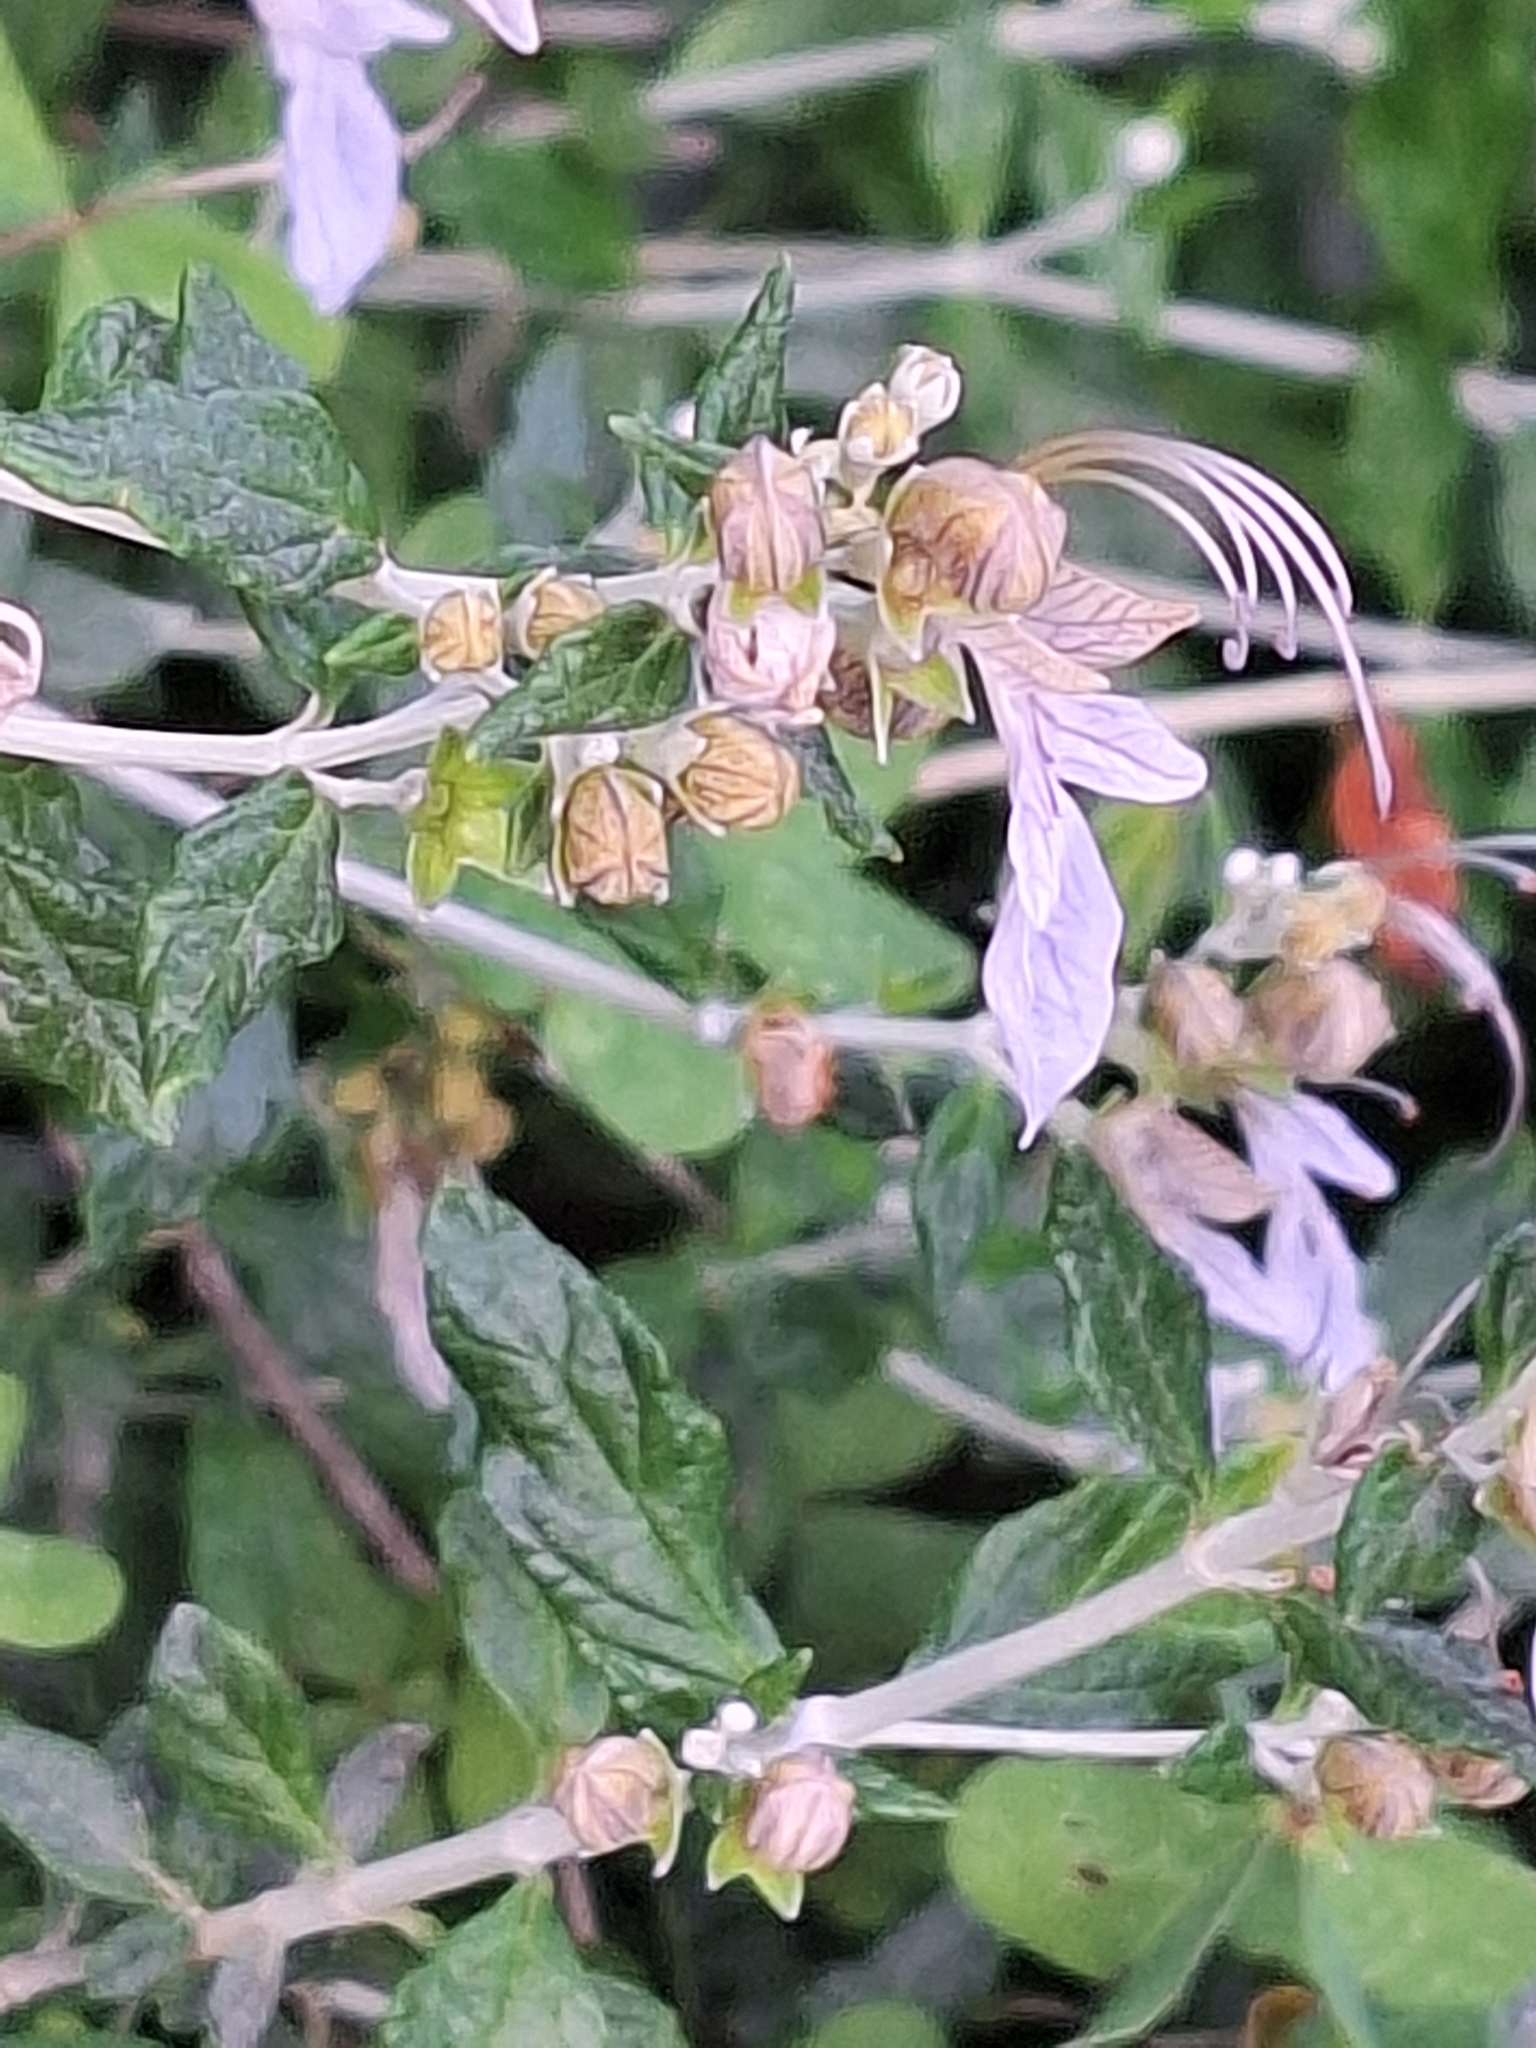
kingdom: Plantae
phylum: Tracheophyta
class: Magnoliopsida
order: Lamiales
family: Lamiaceae
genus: Teucrium
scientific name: Teucrium fruticans
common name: Shrubby germander
